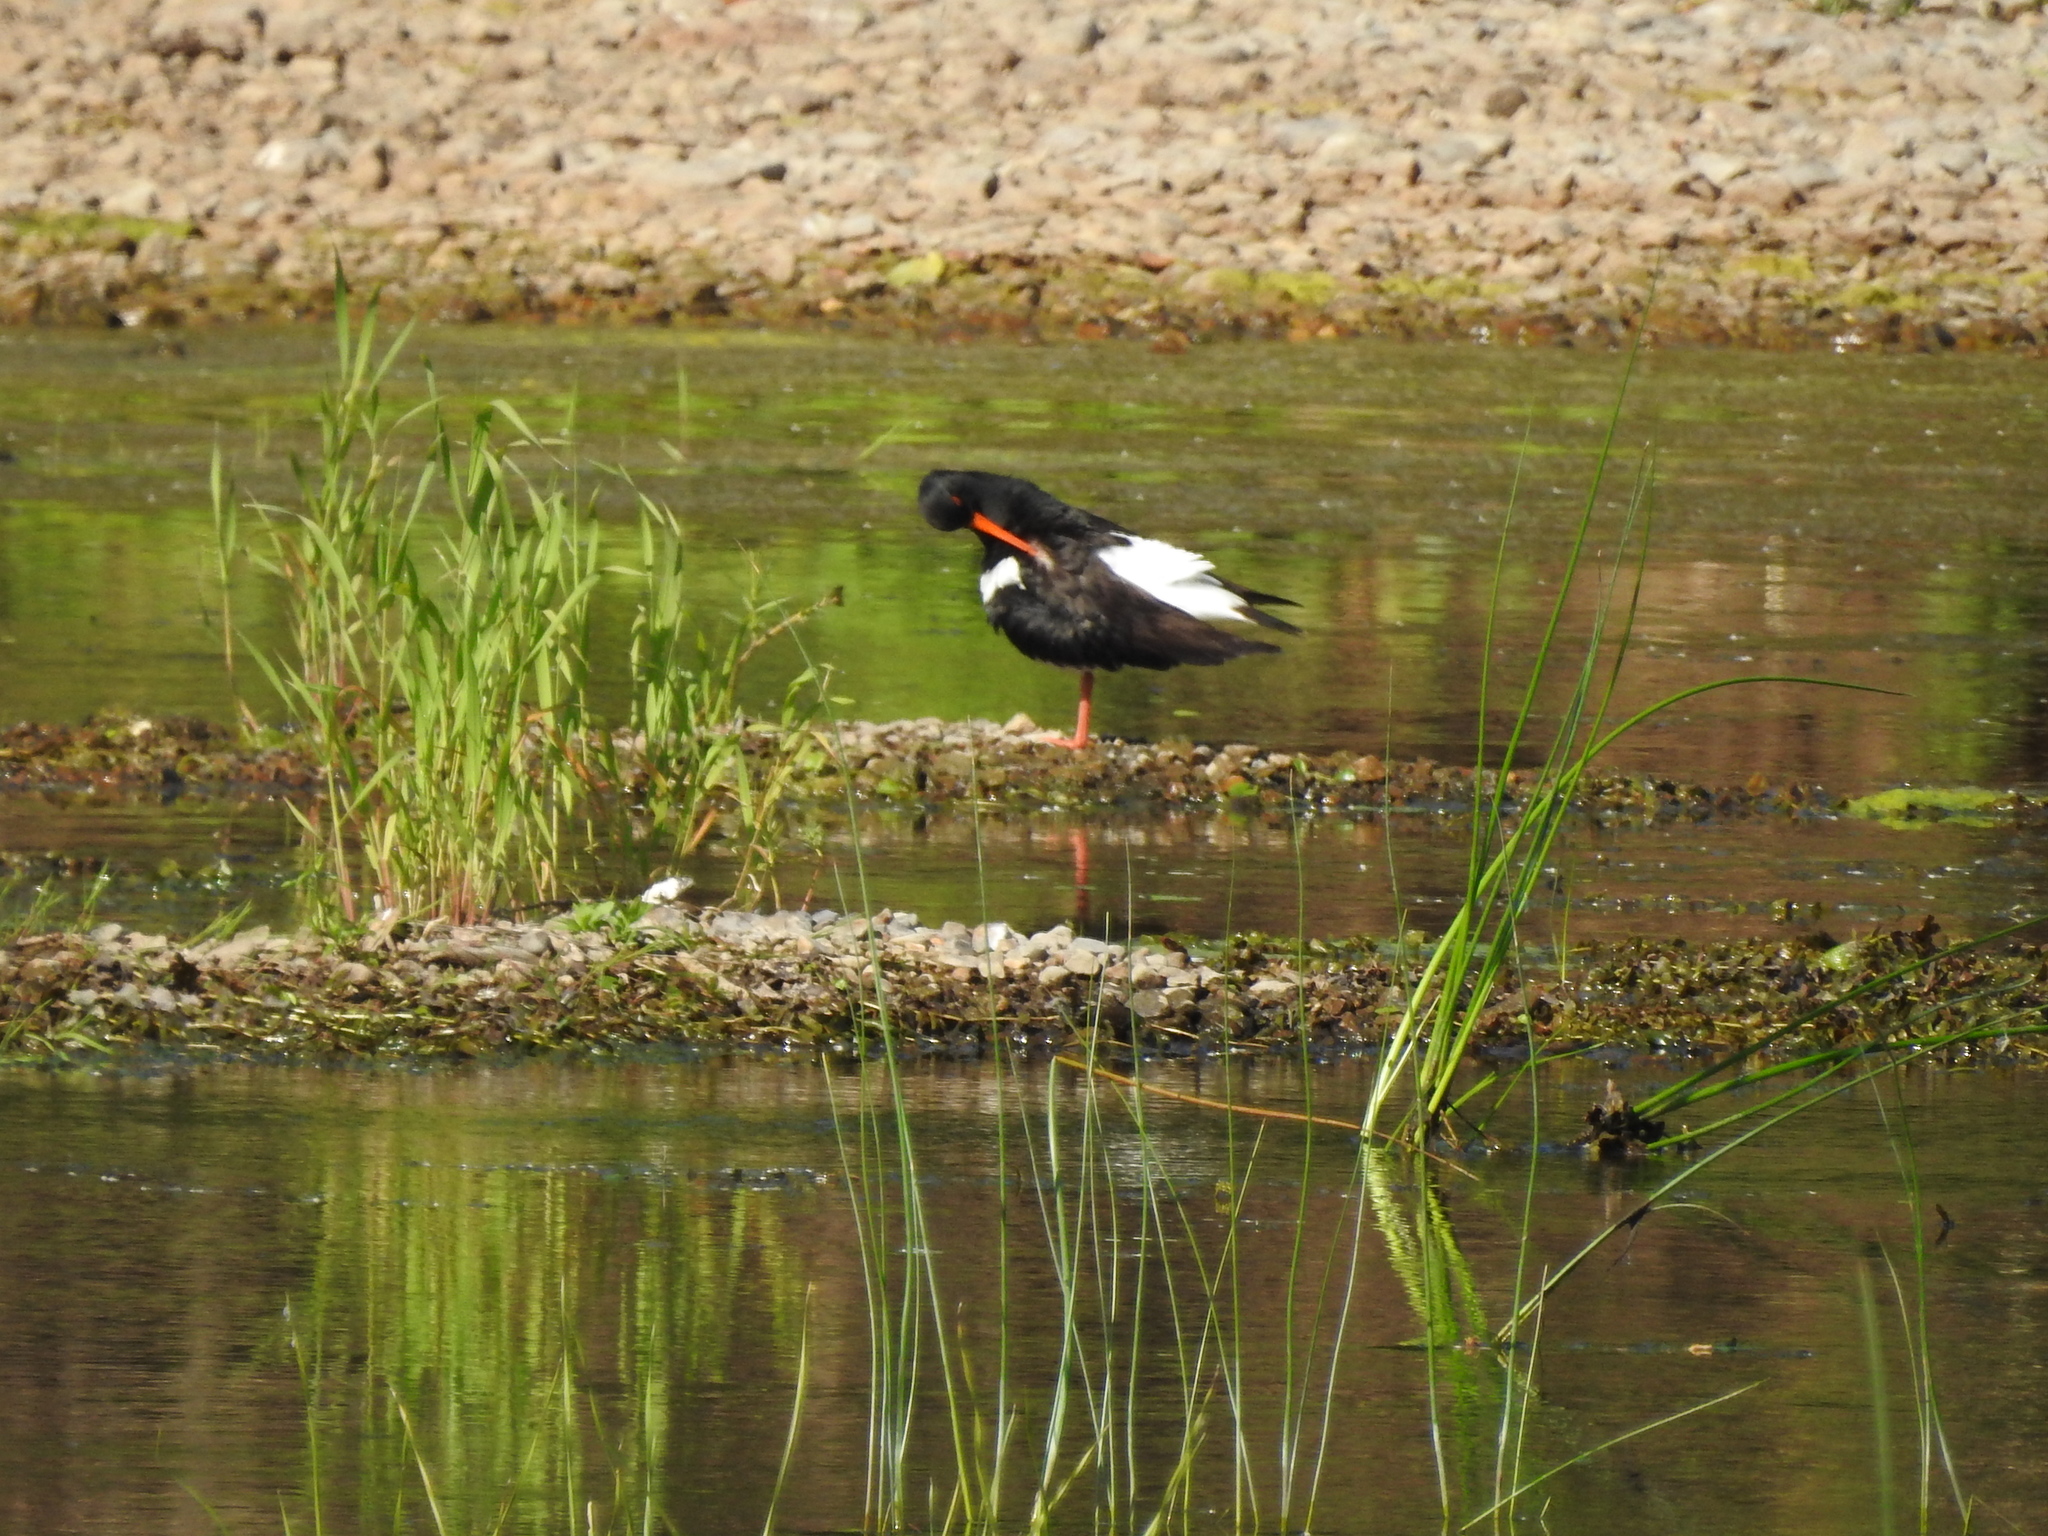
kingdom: Animalia
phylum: Chordata
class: Aves
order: Charadriiformes
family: Haematopodidae
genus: Haematopus
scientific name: Haematopus ostralegus
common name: Eurasian oystercatcher
